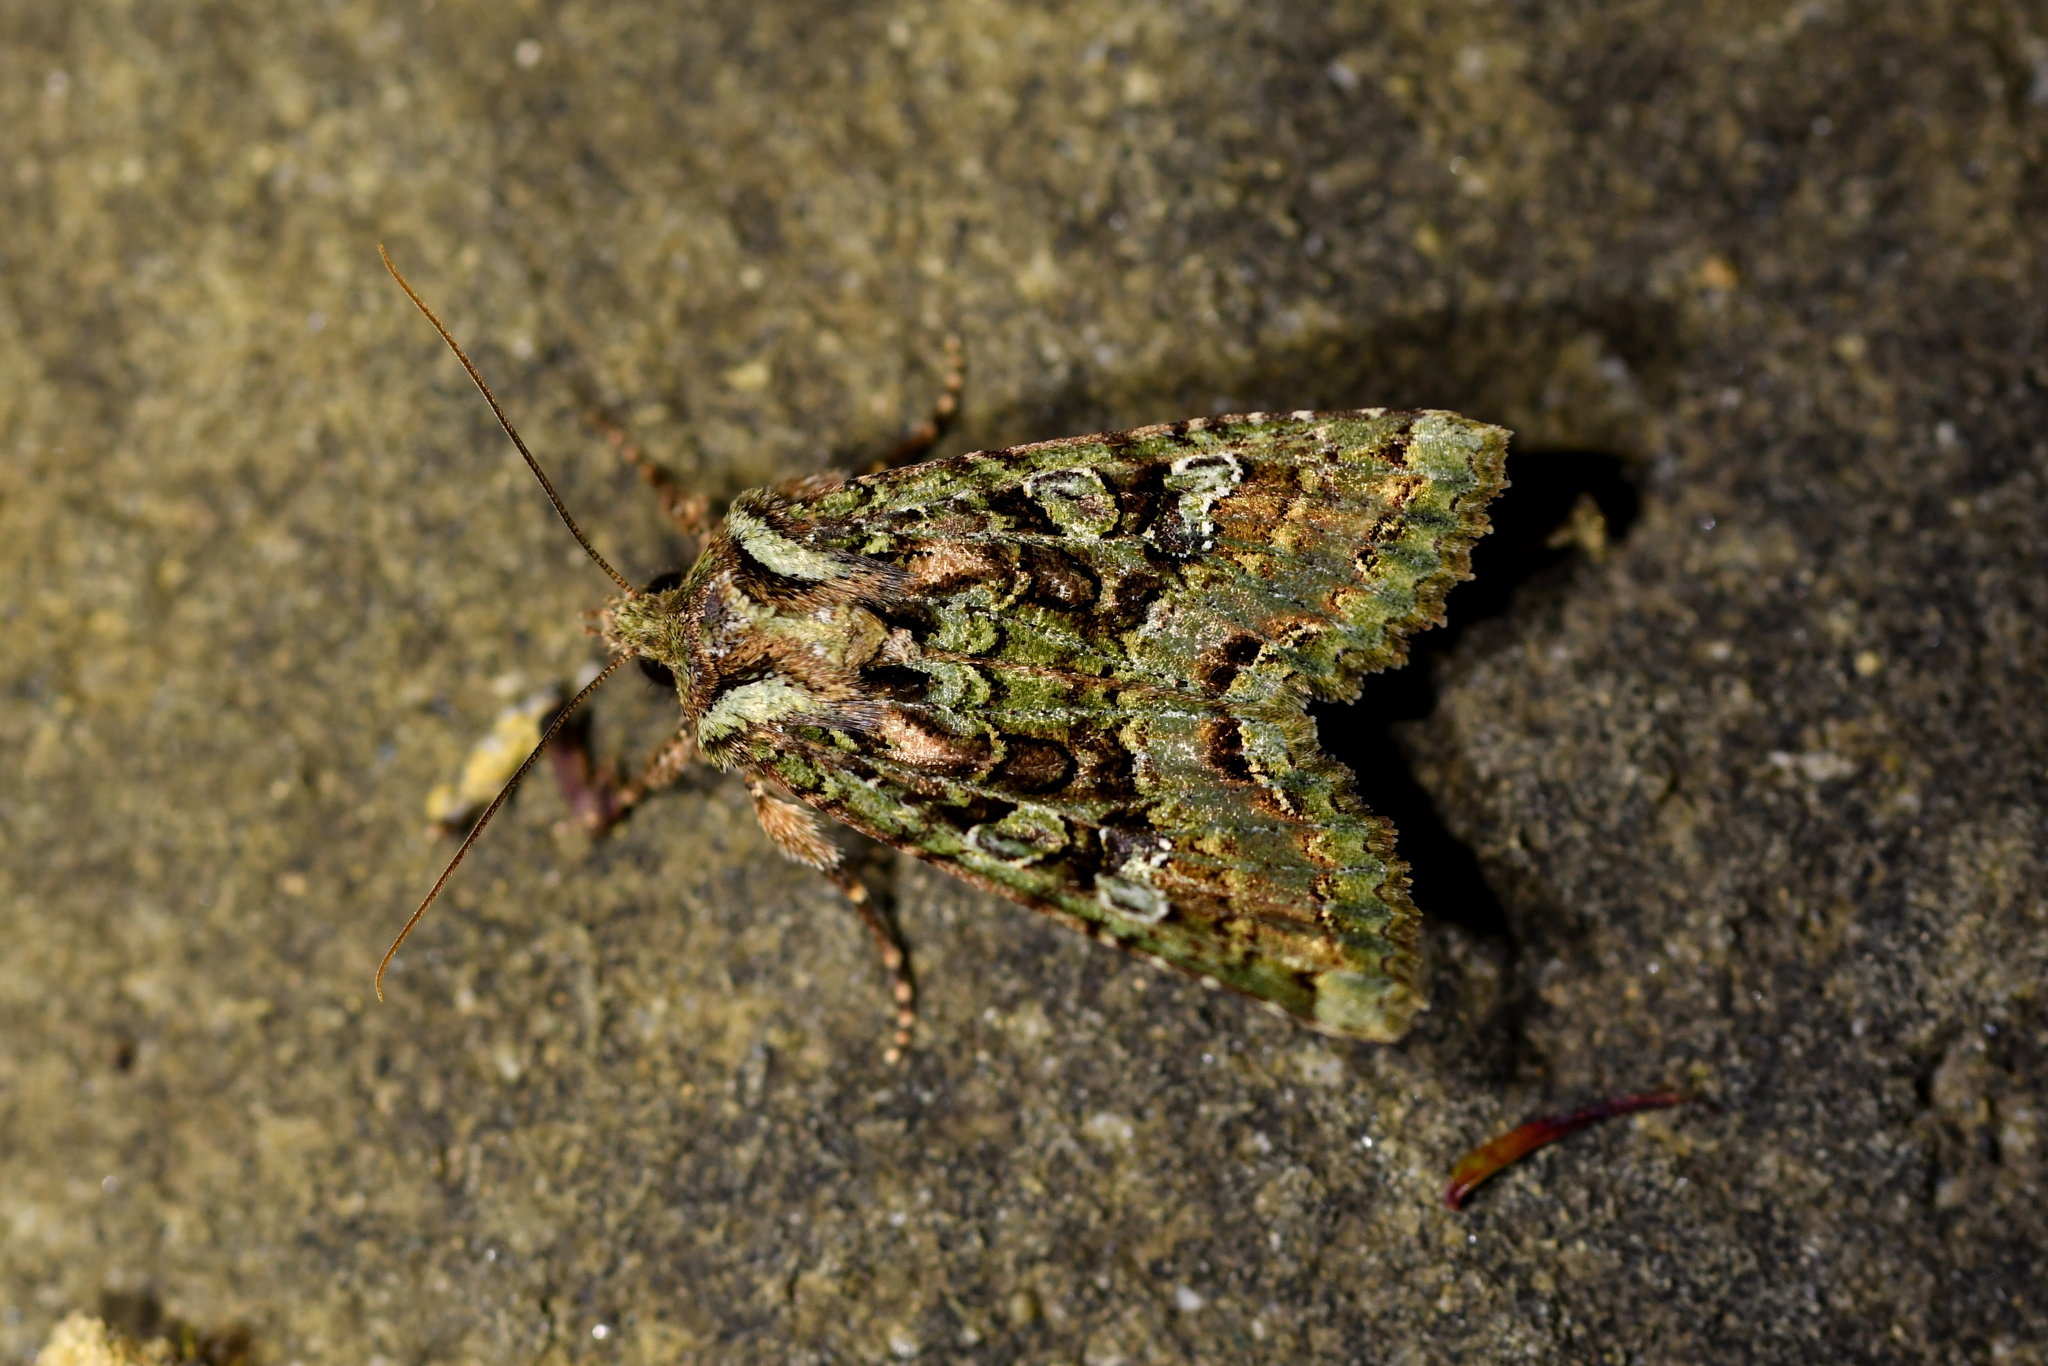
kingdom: Animalia
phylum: Arthropoda
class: Insecta
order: Lepidoptera
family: Noctuidae
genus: Meterana
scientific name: Meterana
